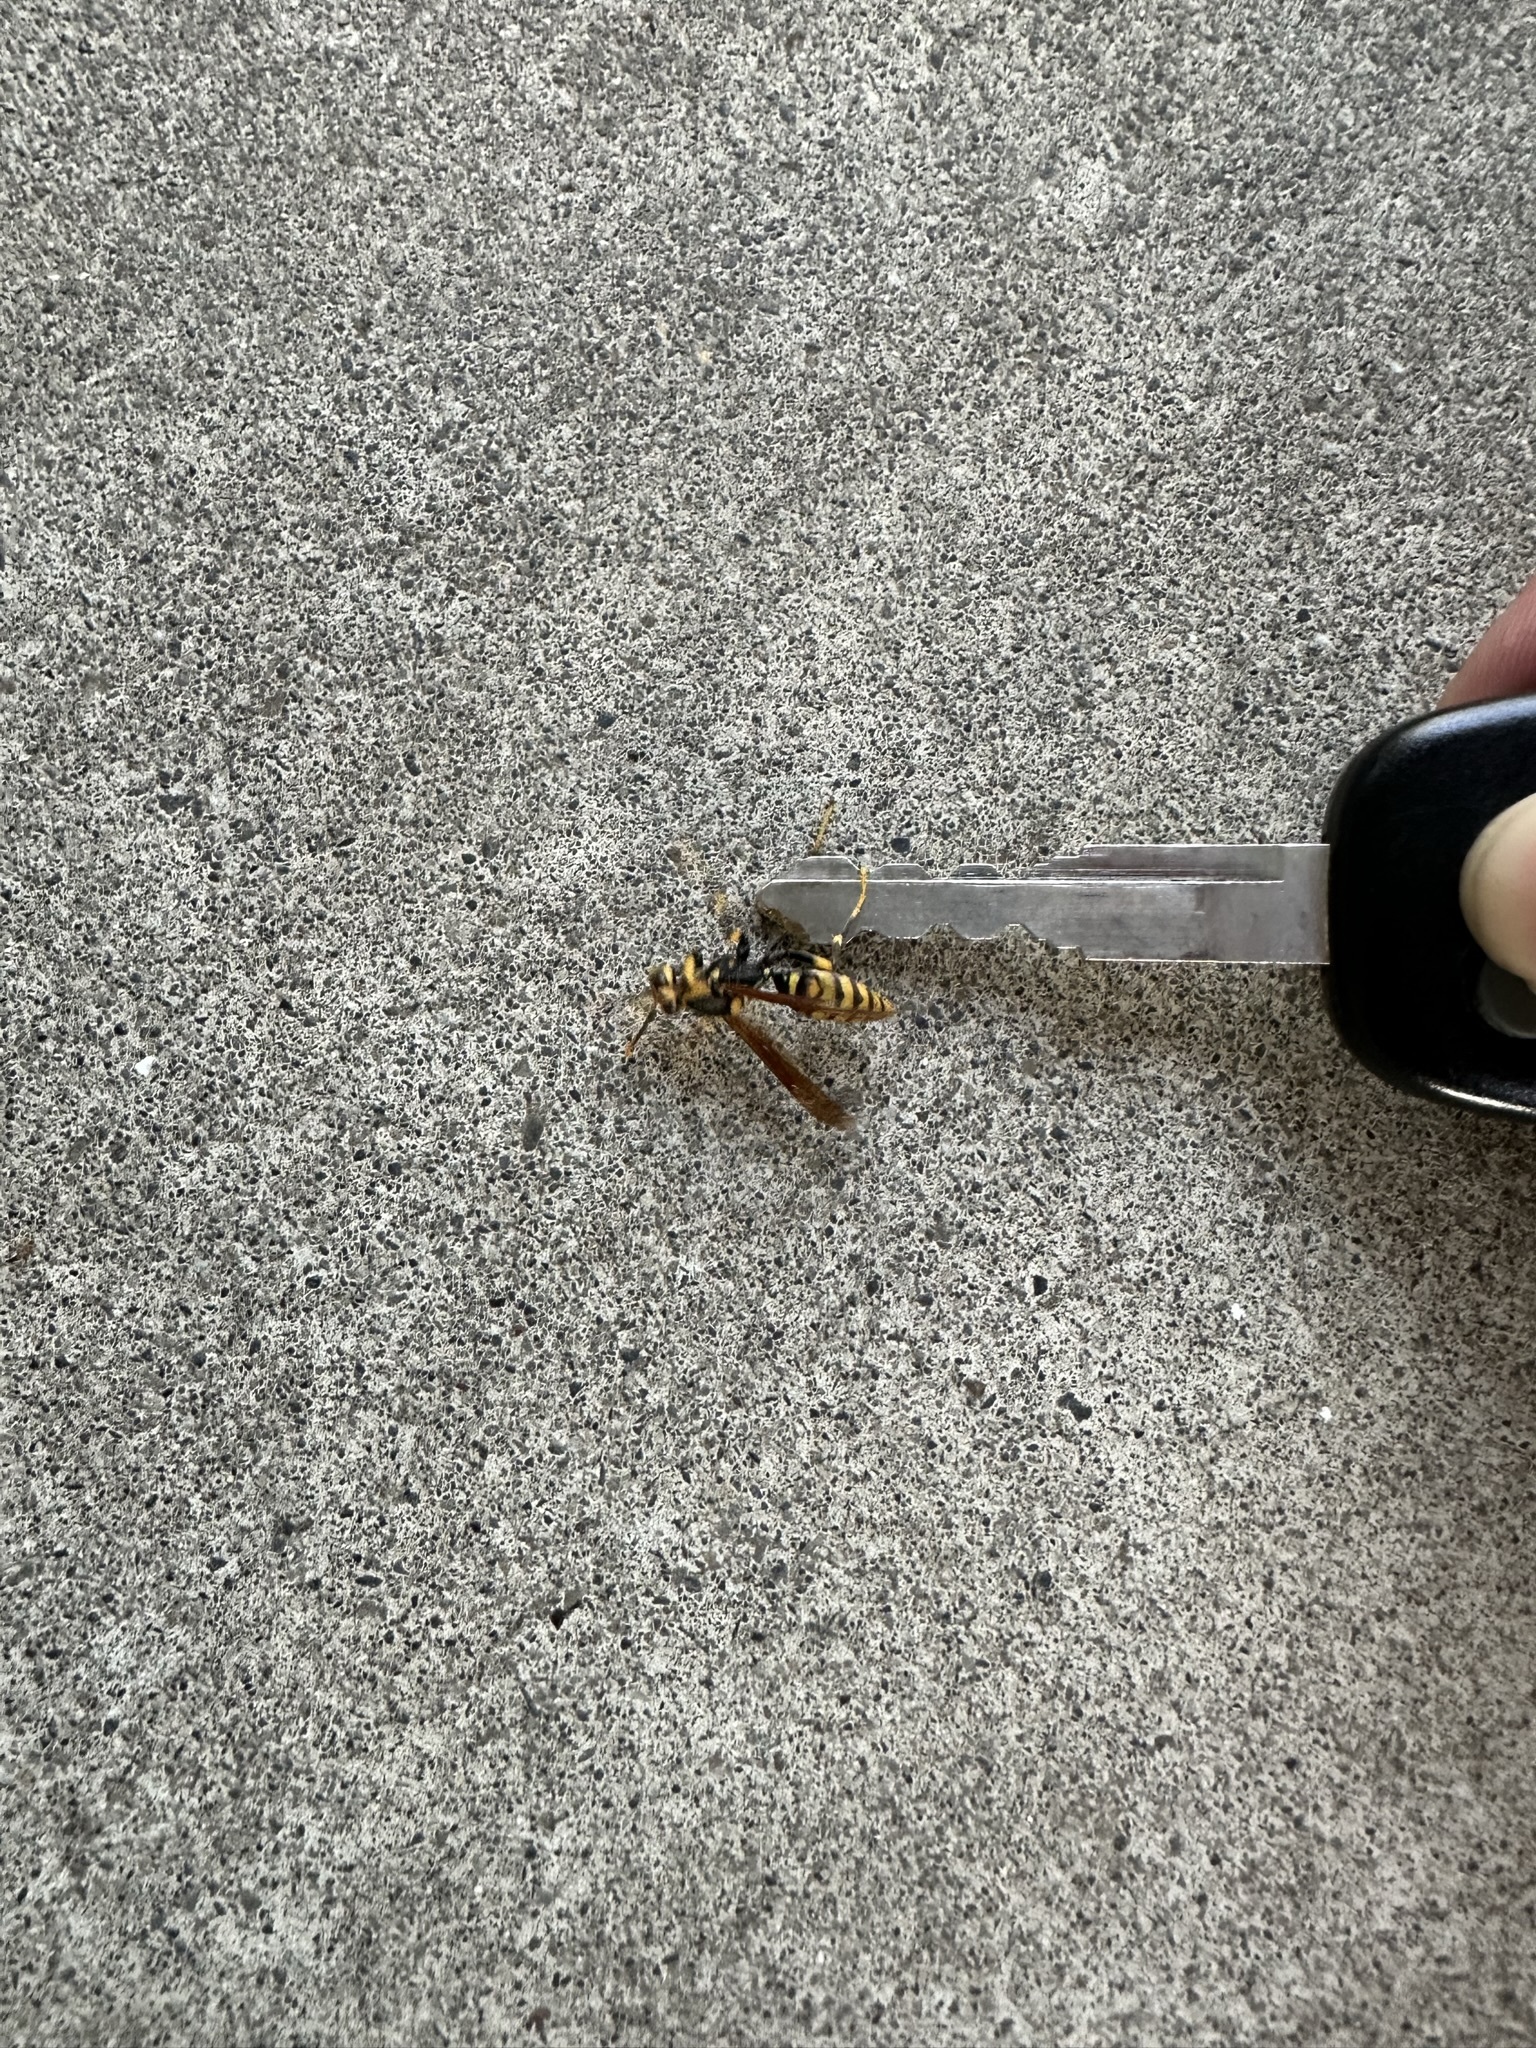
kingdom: Animalia
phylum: Arthropoda
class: Insecta
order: Hymenoptera
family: Eumenidae
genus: Polistes
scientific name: Polistes rothneyi
